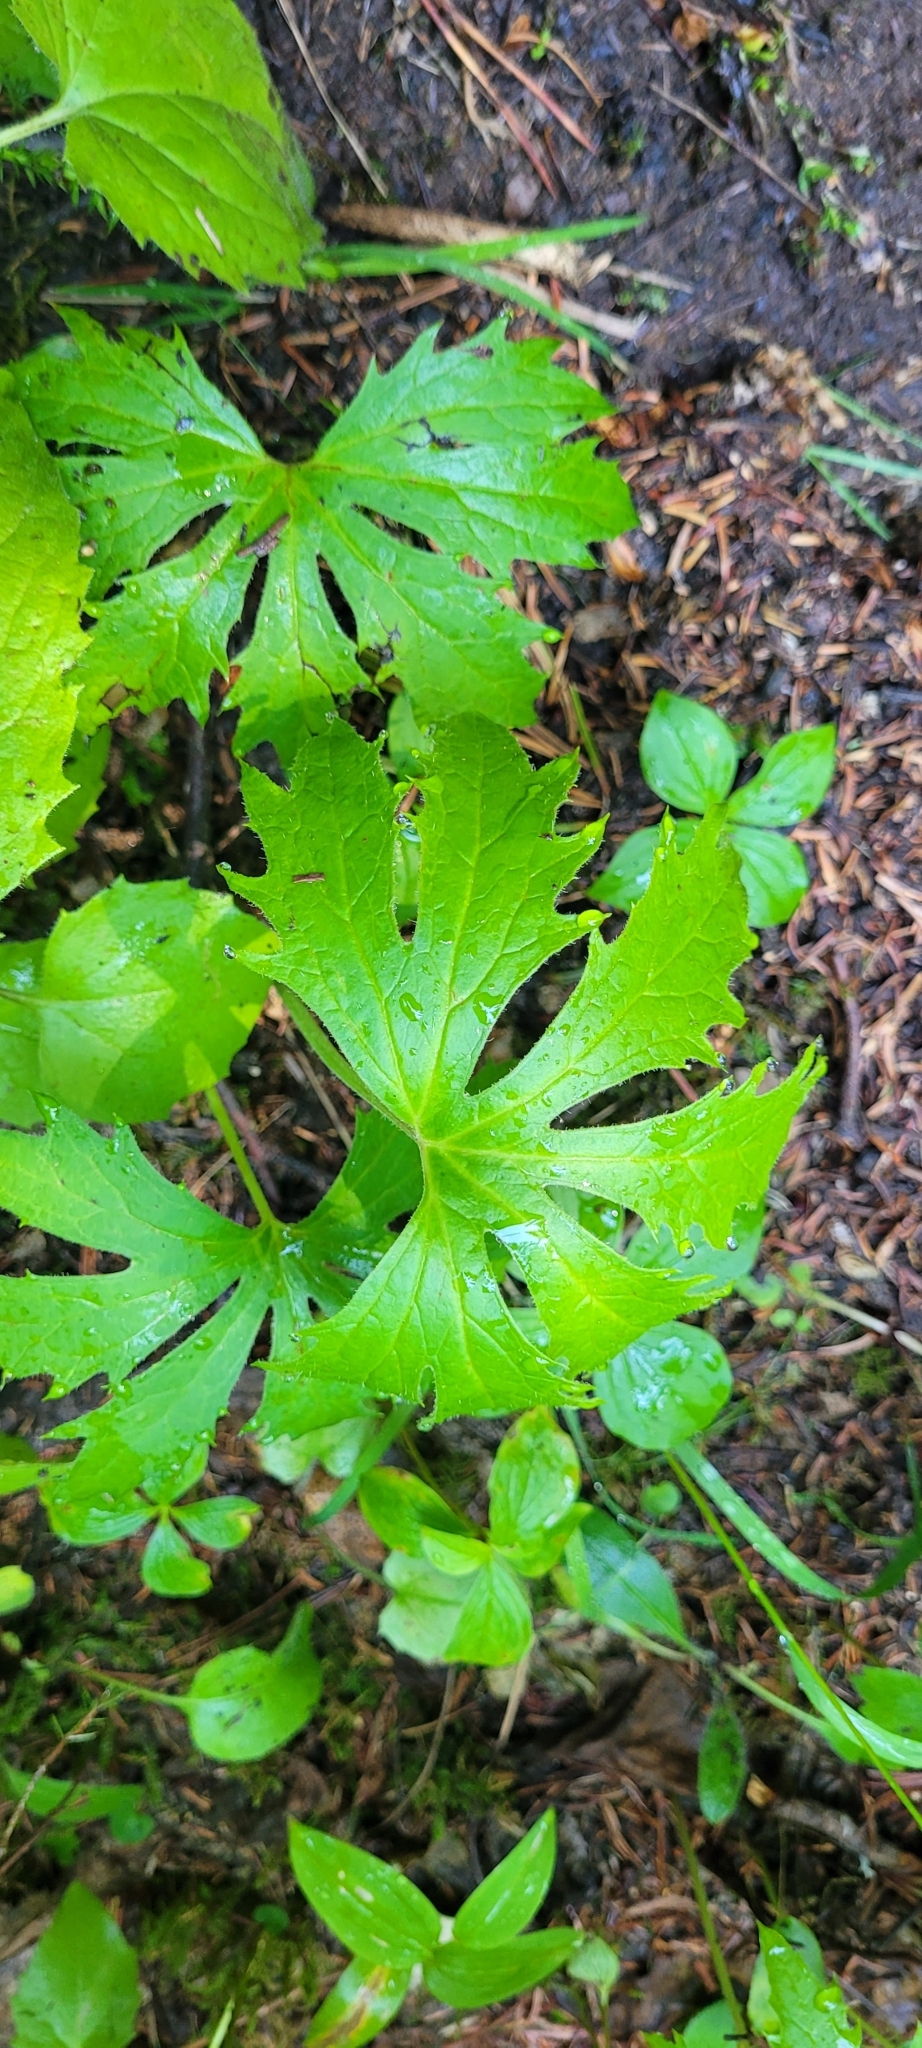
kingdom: Plantae
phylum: Tracheophyta
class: Magnoliopsida
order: Asterales
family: Asteraceae
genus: Petasites
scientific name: Petasites frigidus
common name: Arctic butterbur
